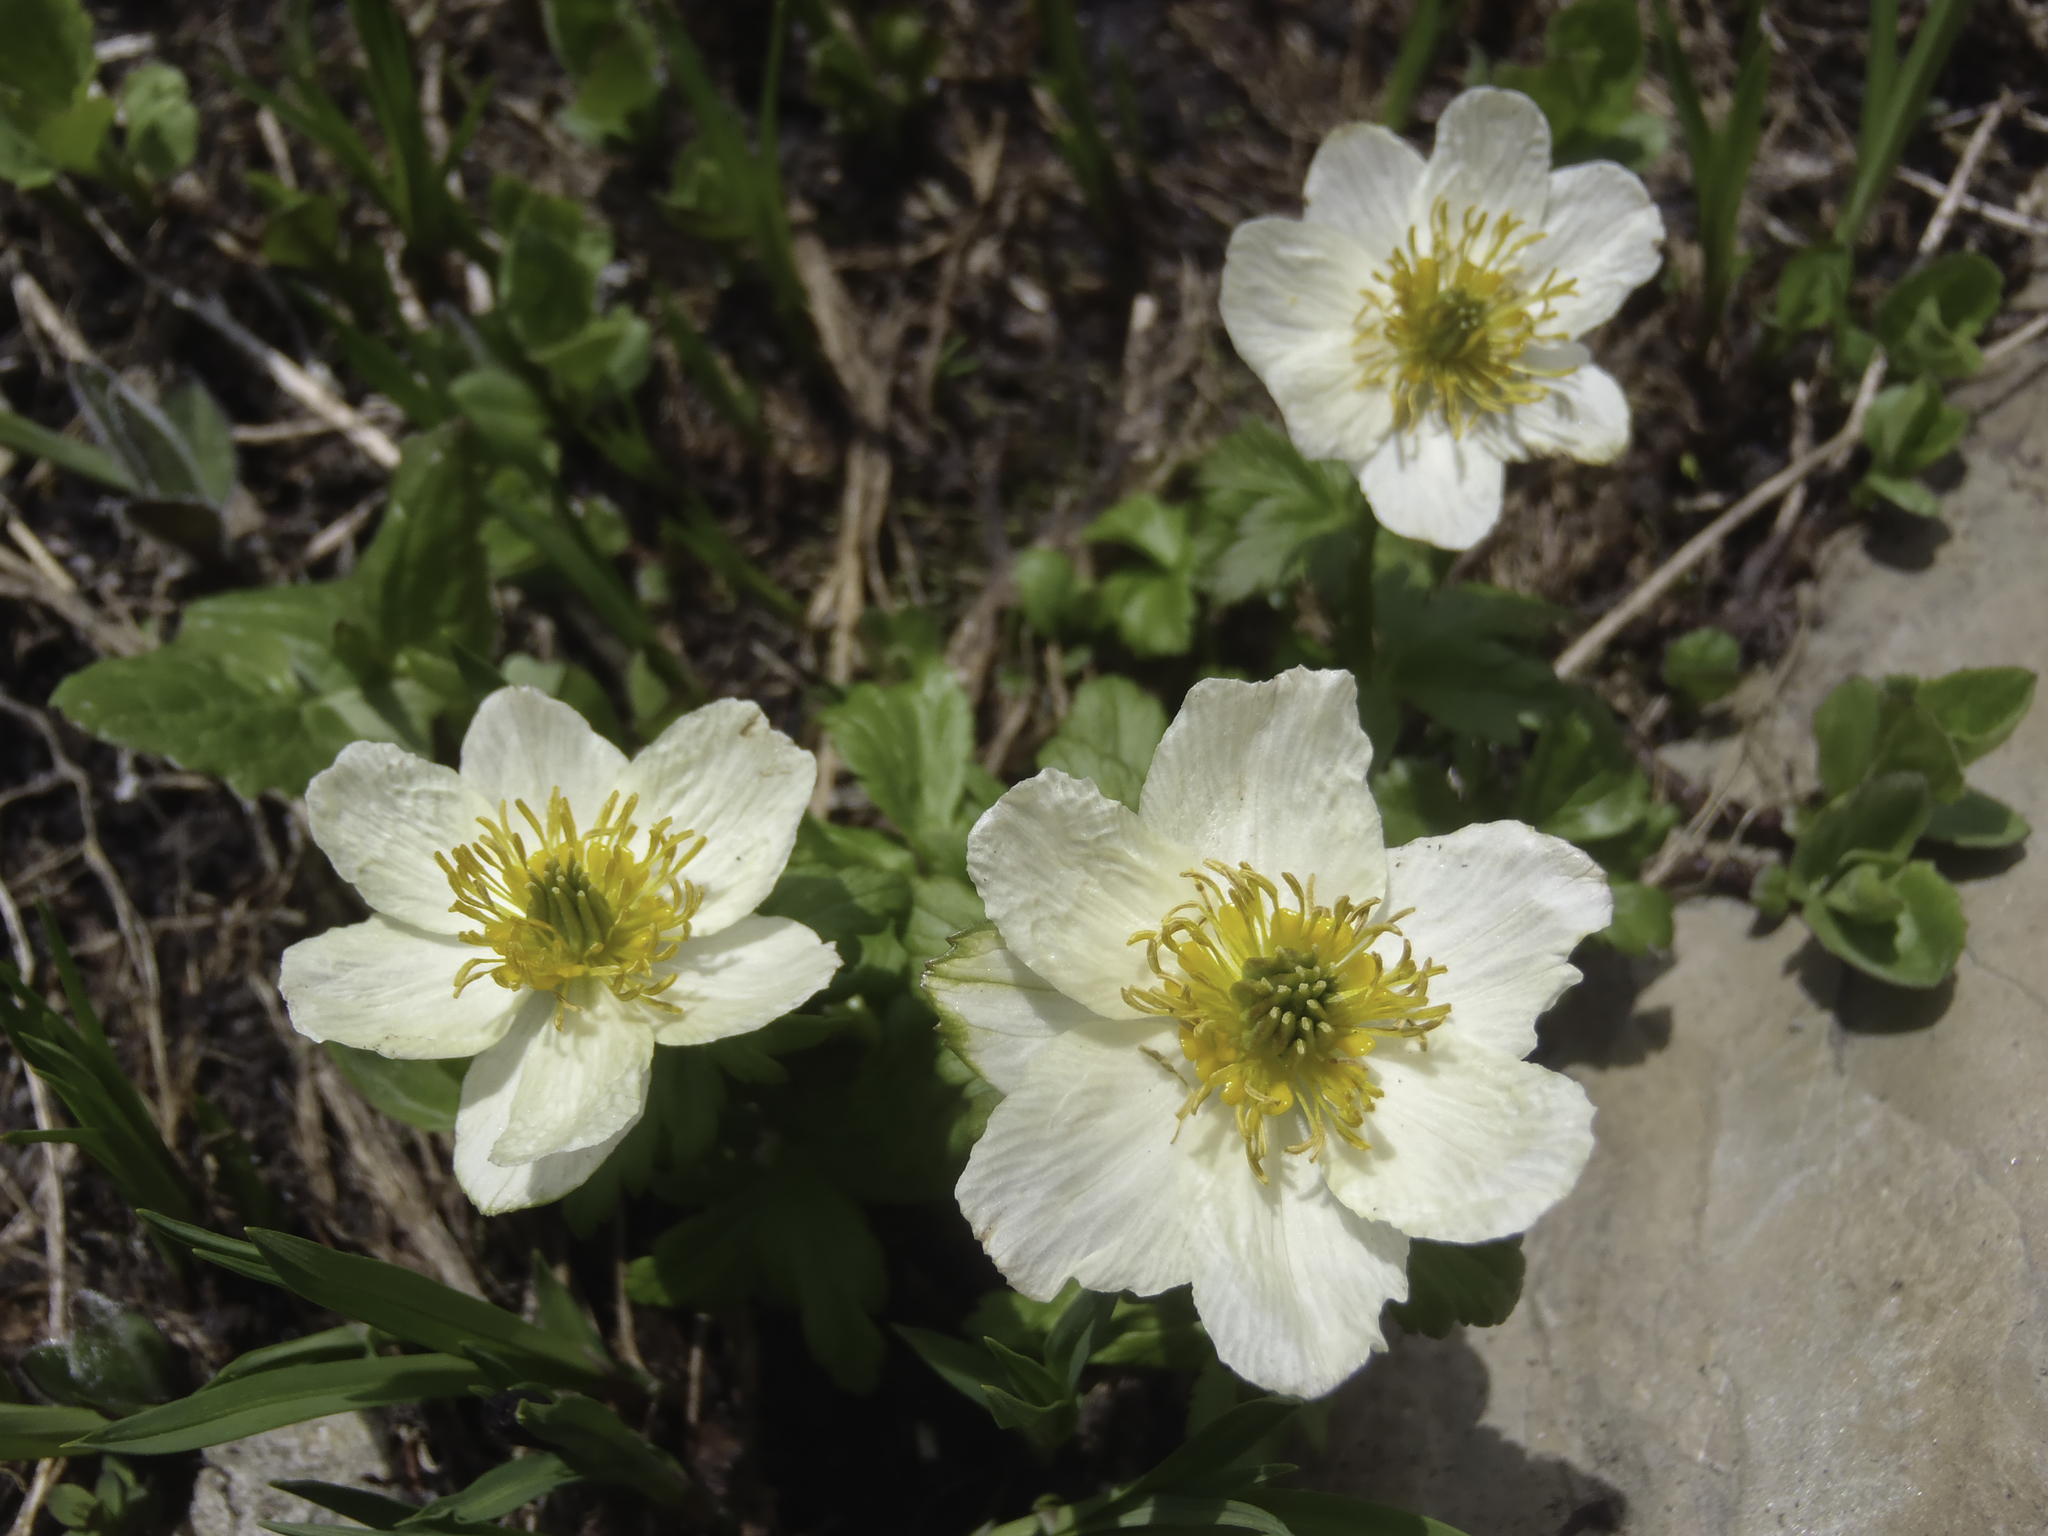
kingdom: Plantae
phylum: Tracheophyta
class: Magnoliopsida
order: Ranunculales
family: Ranunculaceae
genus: Trollius
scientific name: Trollius laxus
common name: American globeflower
